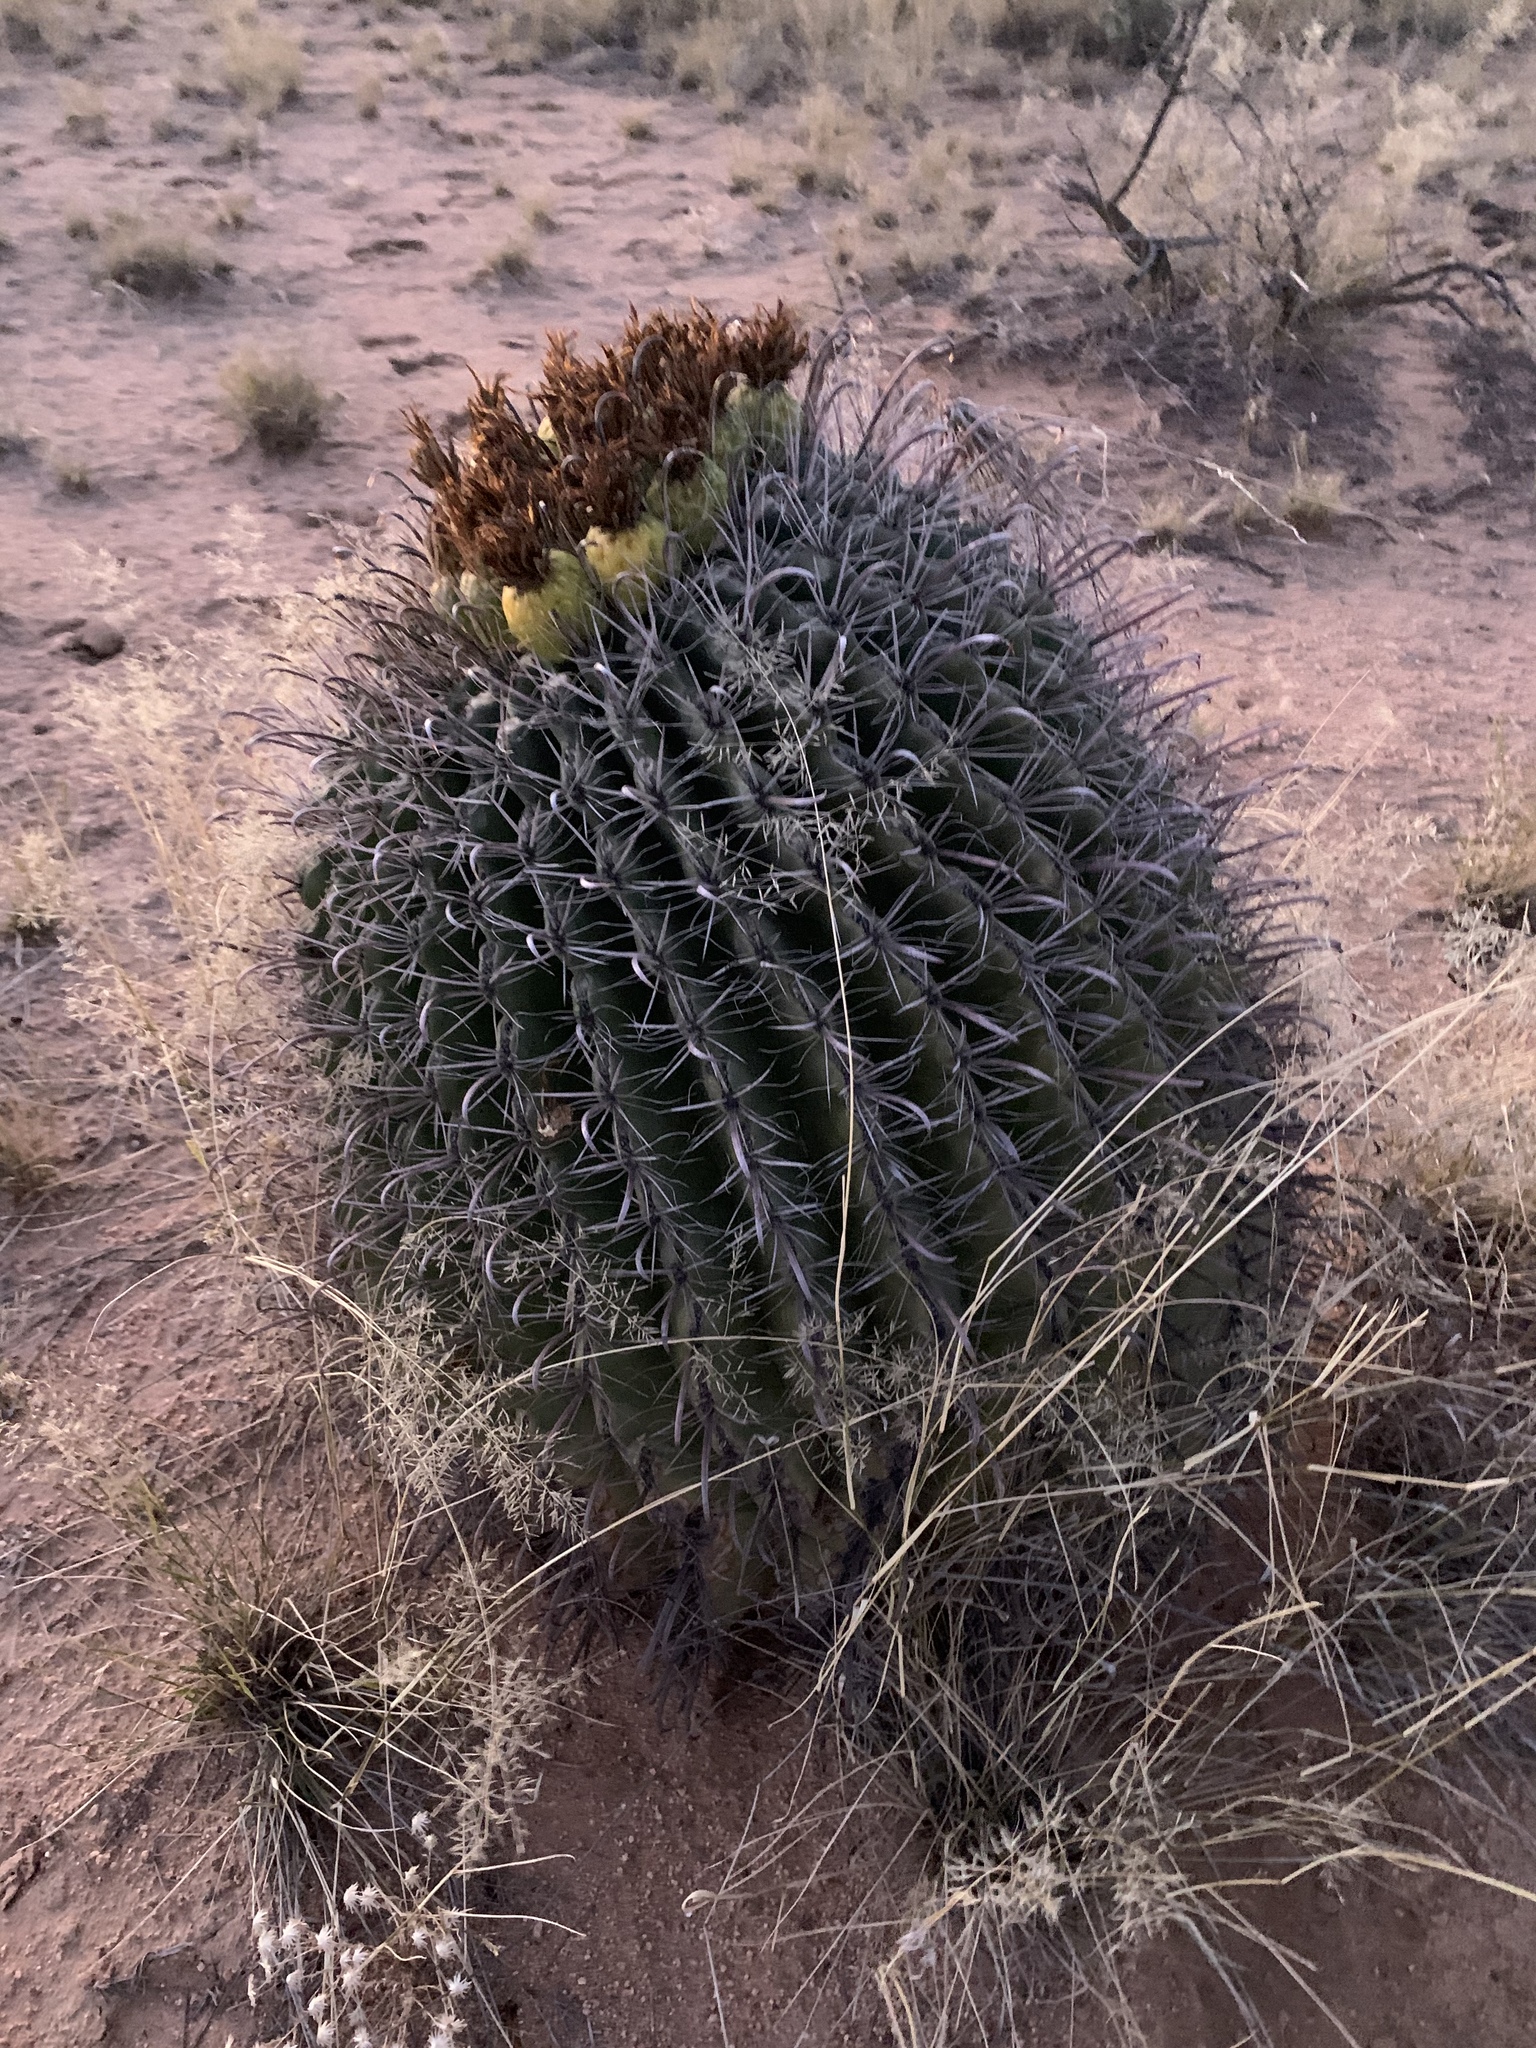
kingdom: Plantae
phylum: Tracheophyta
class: Magnoliopsida
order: Caryophyllales
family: Cactaceae
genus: Ferocactus
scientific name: Ferocactus wislizeni
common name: Candy barrel cactus
